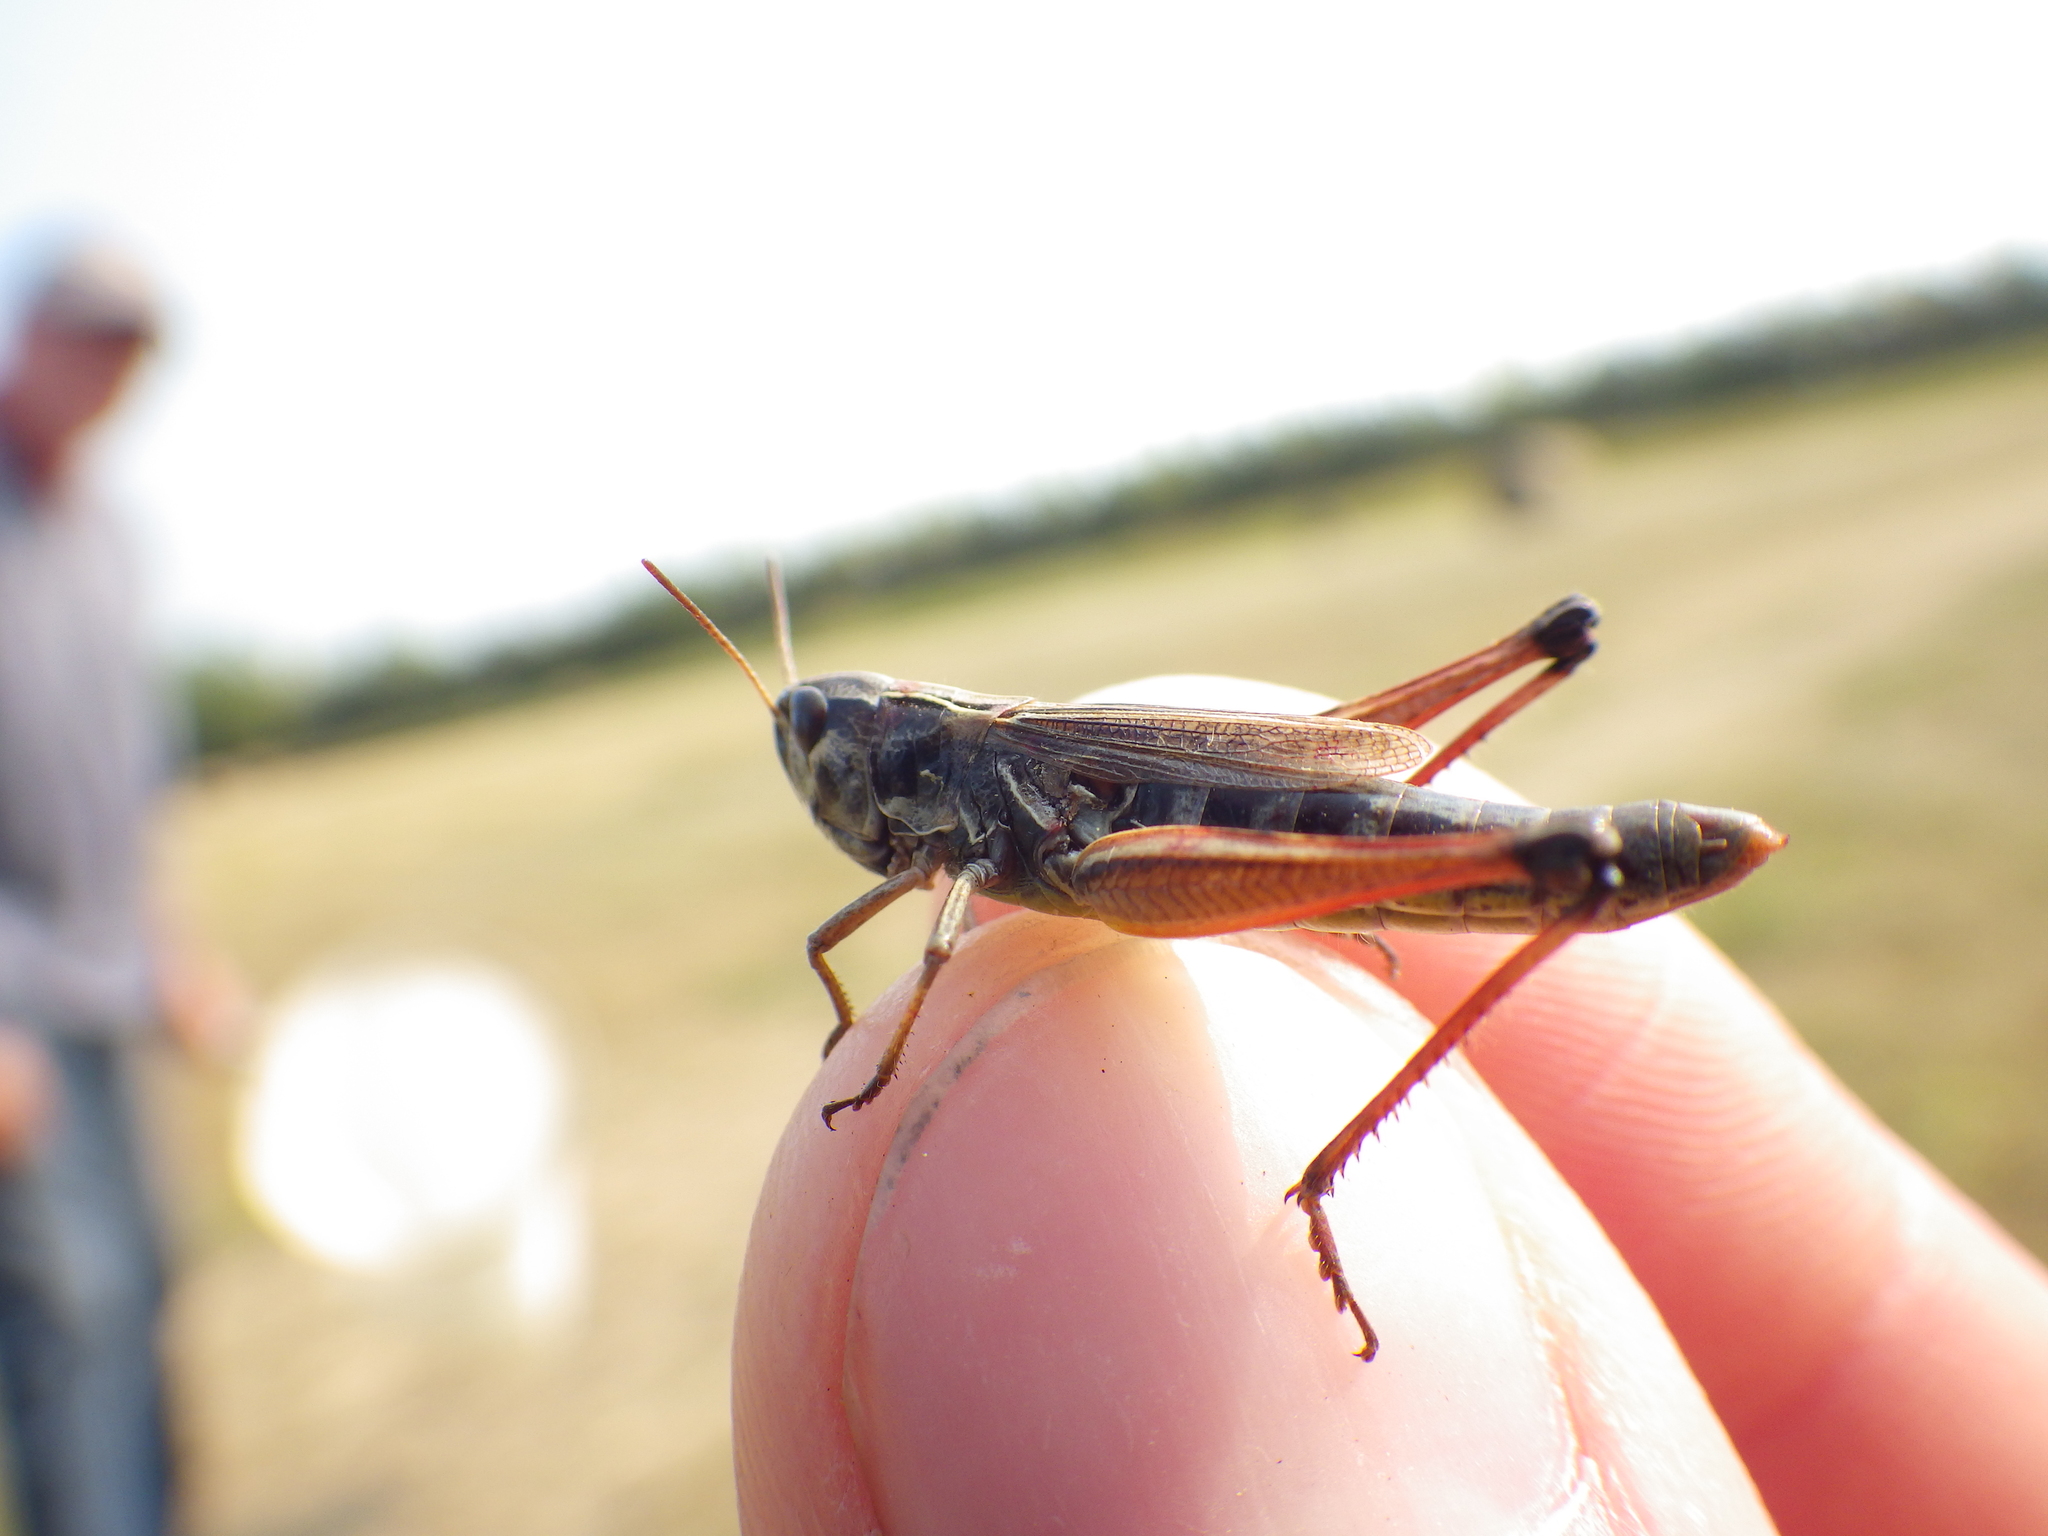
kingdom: Animalia
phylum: Arthropoda
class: Insecta
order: Orthoptera
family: Acrididae
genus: Pseudochorthippus
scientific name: Pseudochorthippus curtipennis
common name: Marsh meadow grasshopper
